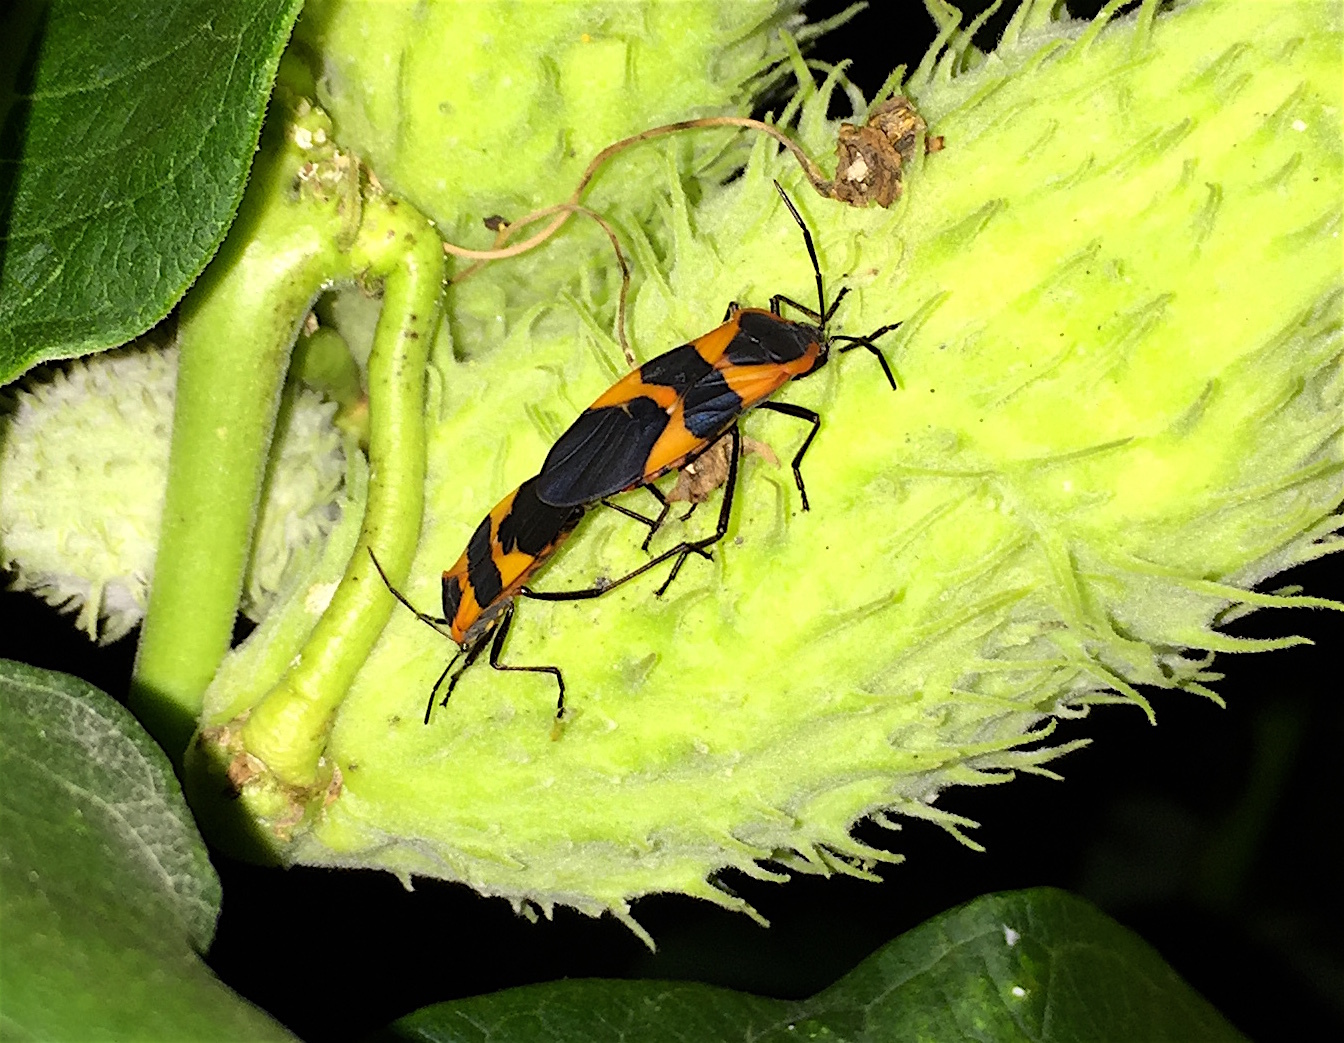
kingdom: Animalia
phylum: Arthropoda
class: Insecta
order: Hemiptera
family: Lygaeidae
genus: Oncopeltus
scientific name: Oncopeltus fasciatus
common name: Large milkweed bug
